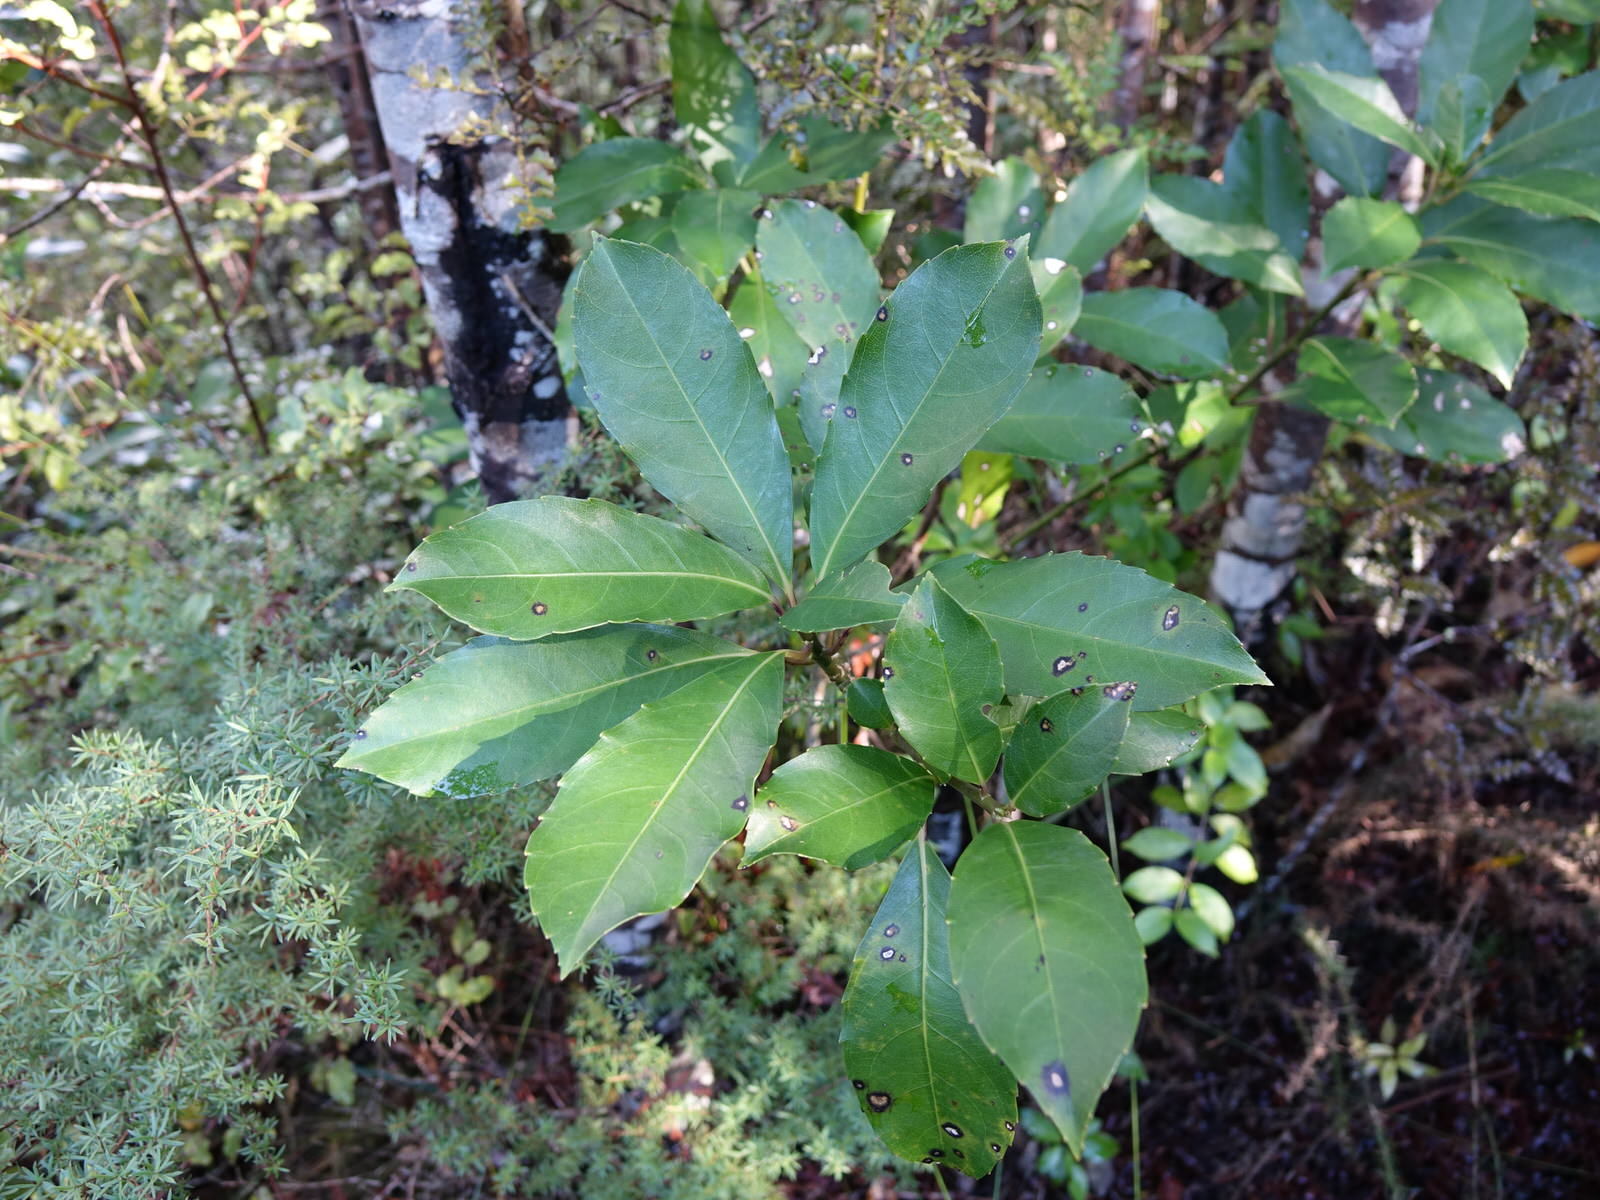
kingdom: Plantae
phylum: Tracheophyta
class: Magnoliopsida
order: Malpighiales
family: Violaceae
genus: Melicytus
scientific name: Melicytus macrophyllus
